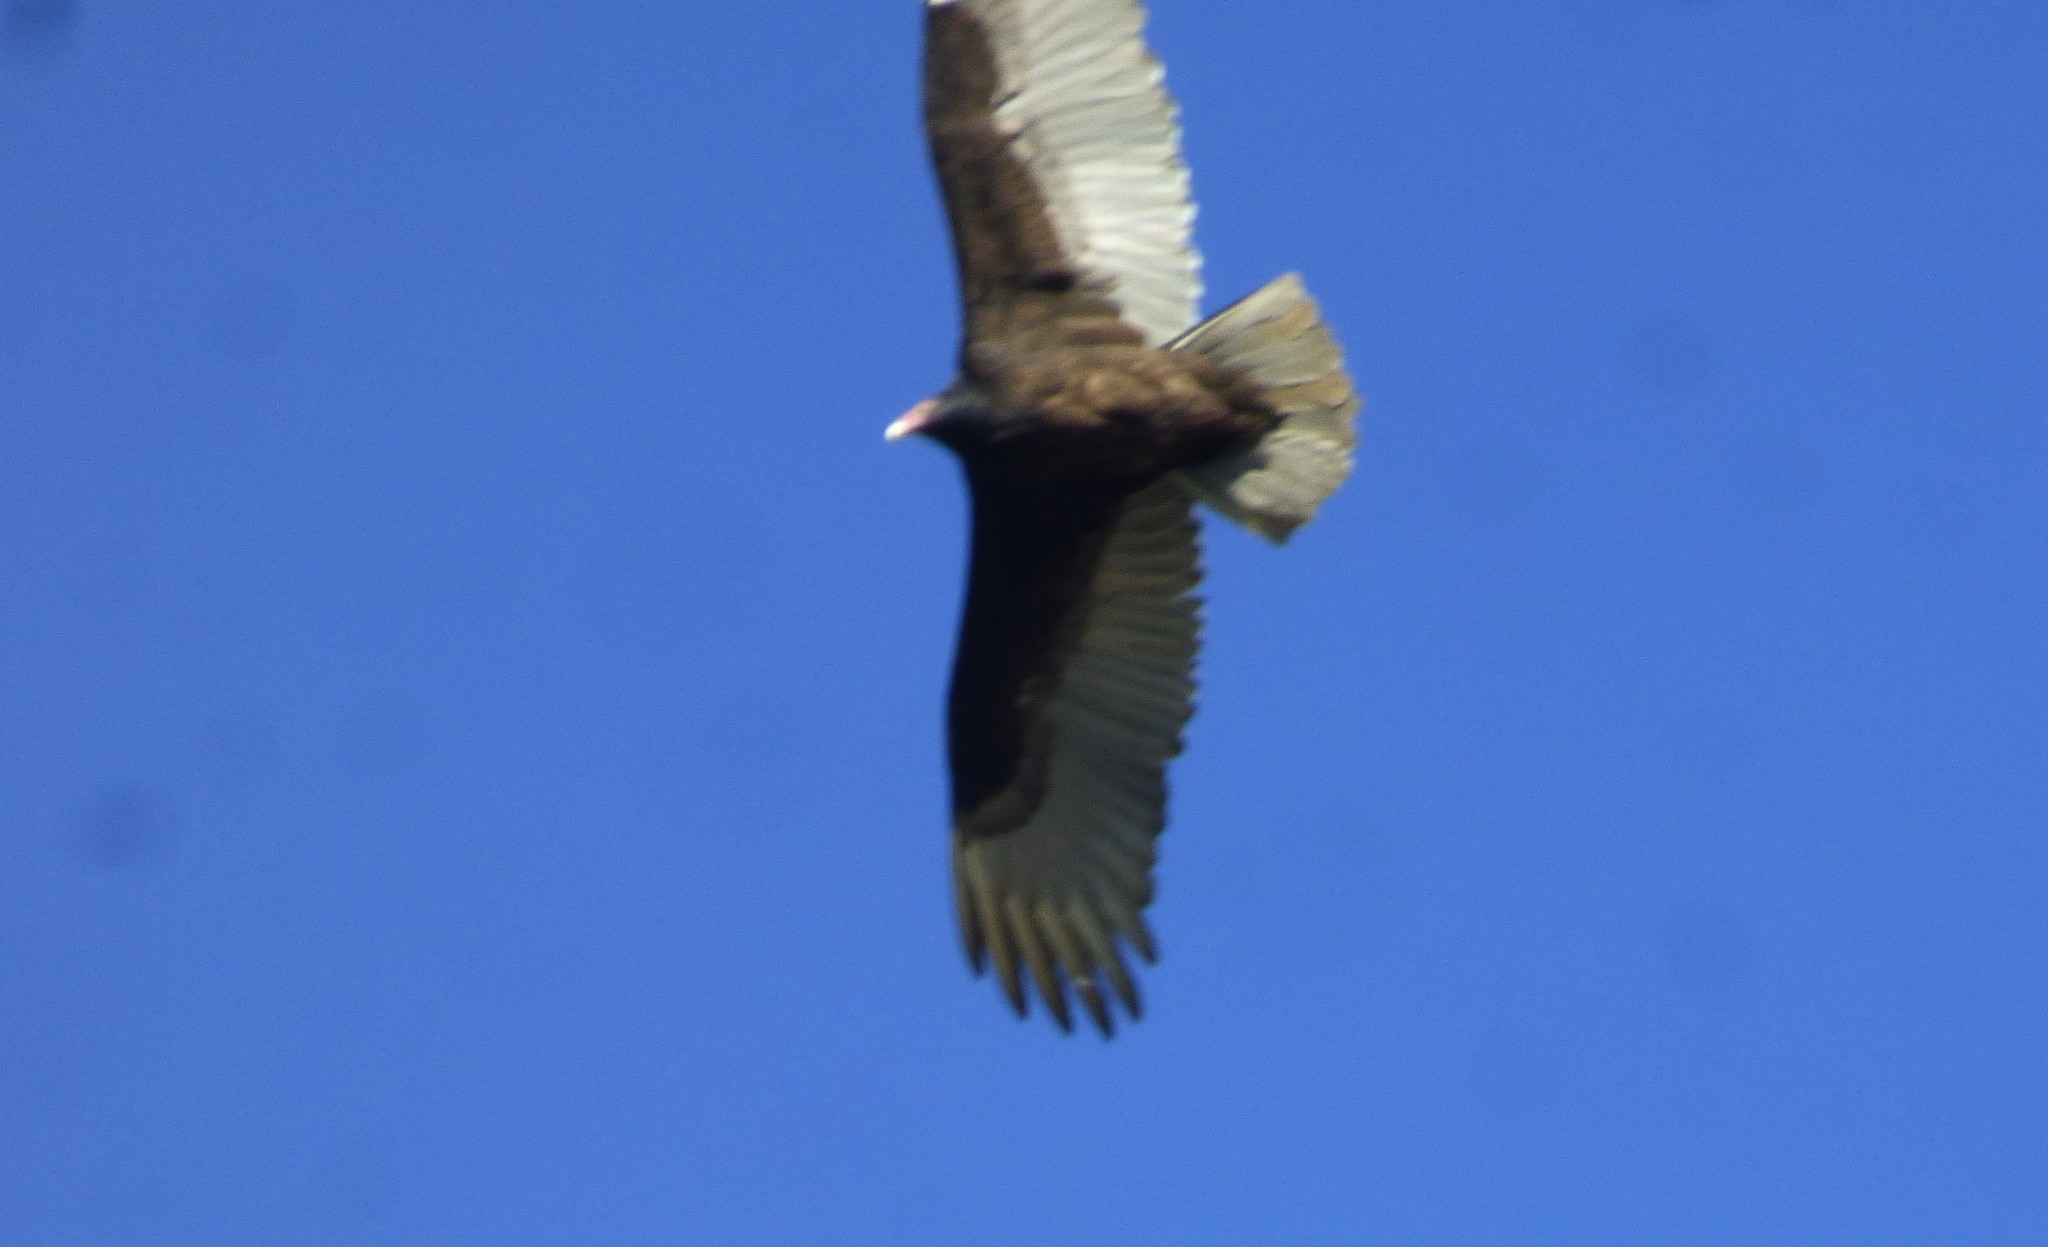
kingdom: Animalia
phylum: Chordata
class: Aves
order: Accipitriformes
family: Cathartidae
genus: Cathartes
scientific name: Cathartes aura
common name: Turkey vulture
